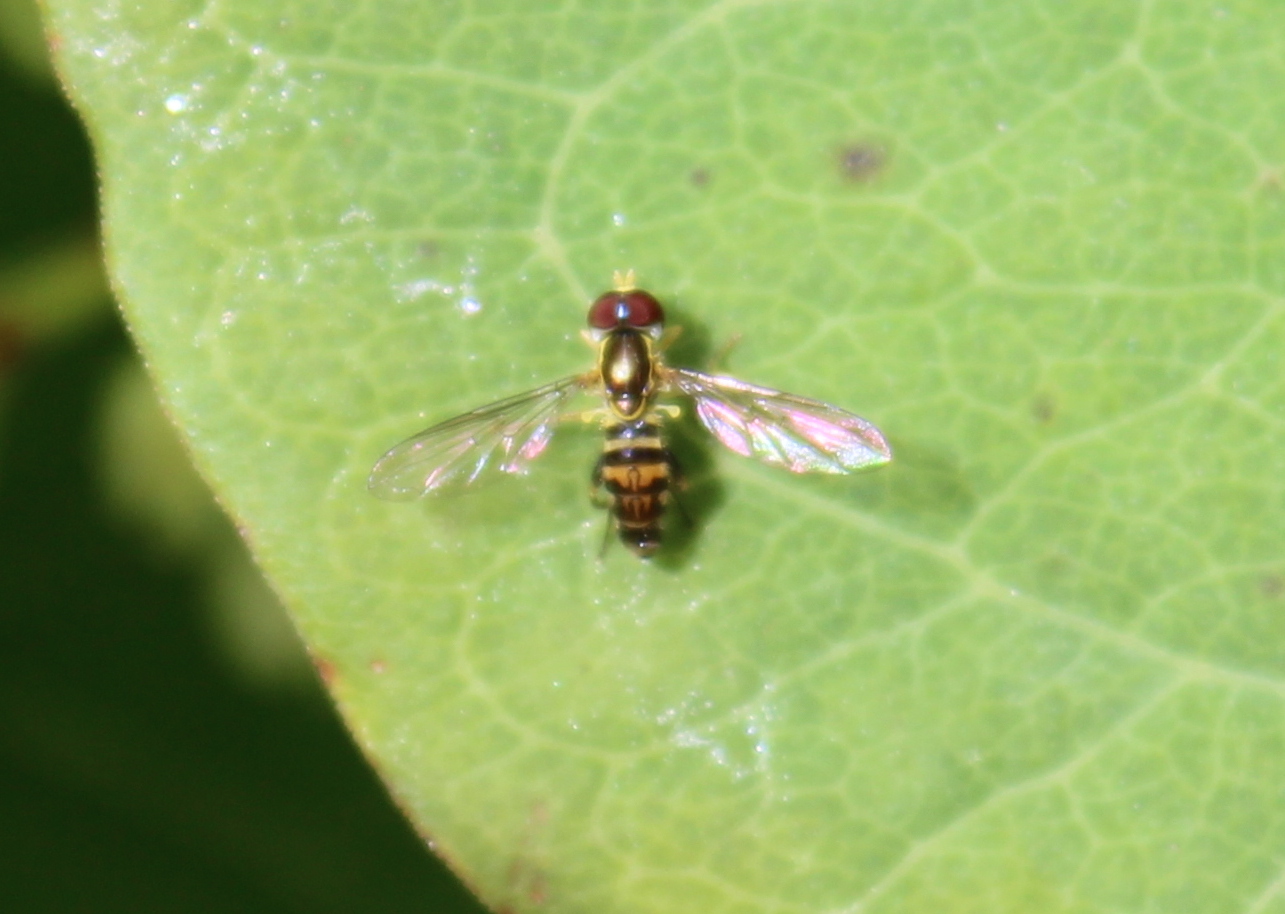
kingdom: Animalia
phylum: Arthropoda
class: Insecta
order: Diptera
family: Syrphidae
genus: Toxomerus
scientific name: Toxomerus geminatus
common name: Eastern calligrapher
